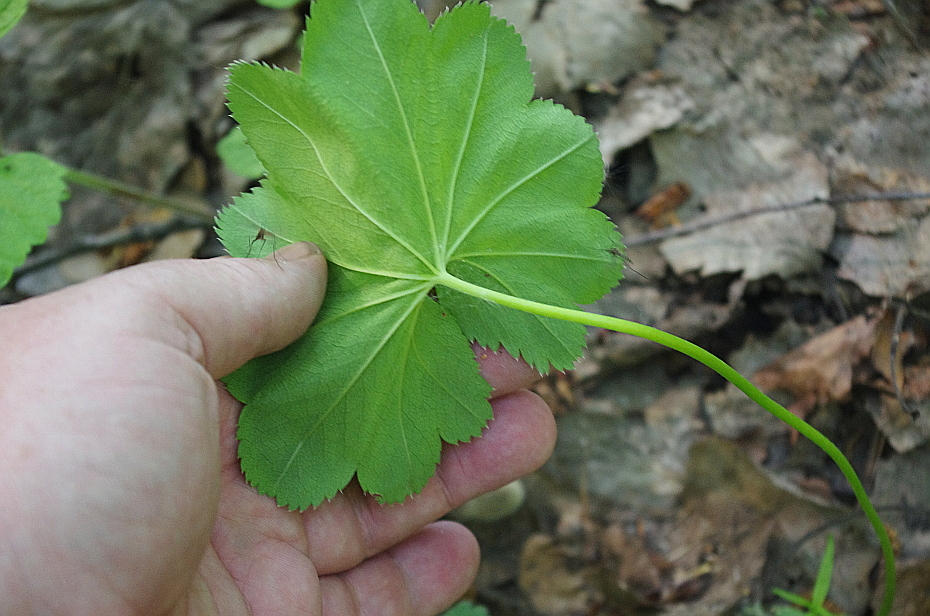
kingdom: Plantae
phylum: Tracheophyta
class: Magnoliopsida
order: Rosales
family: Rosaceae
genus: Alchemilla
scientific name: Alchemilla
